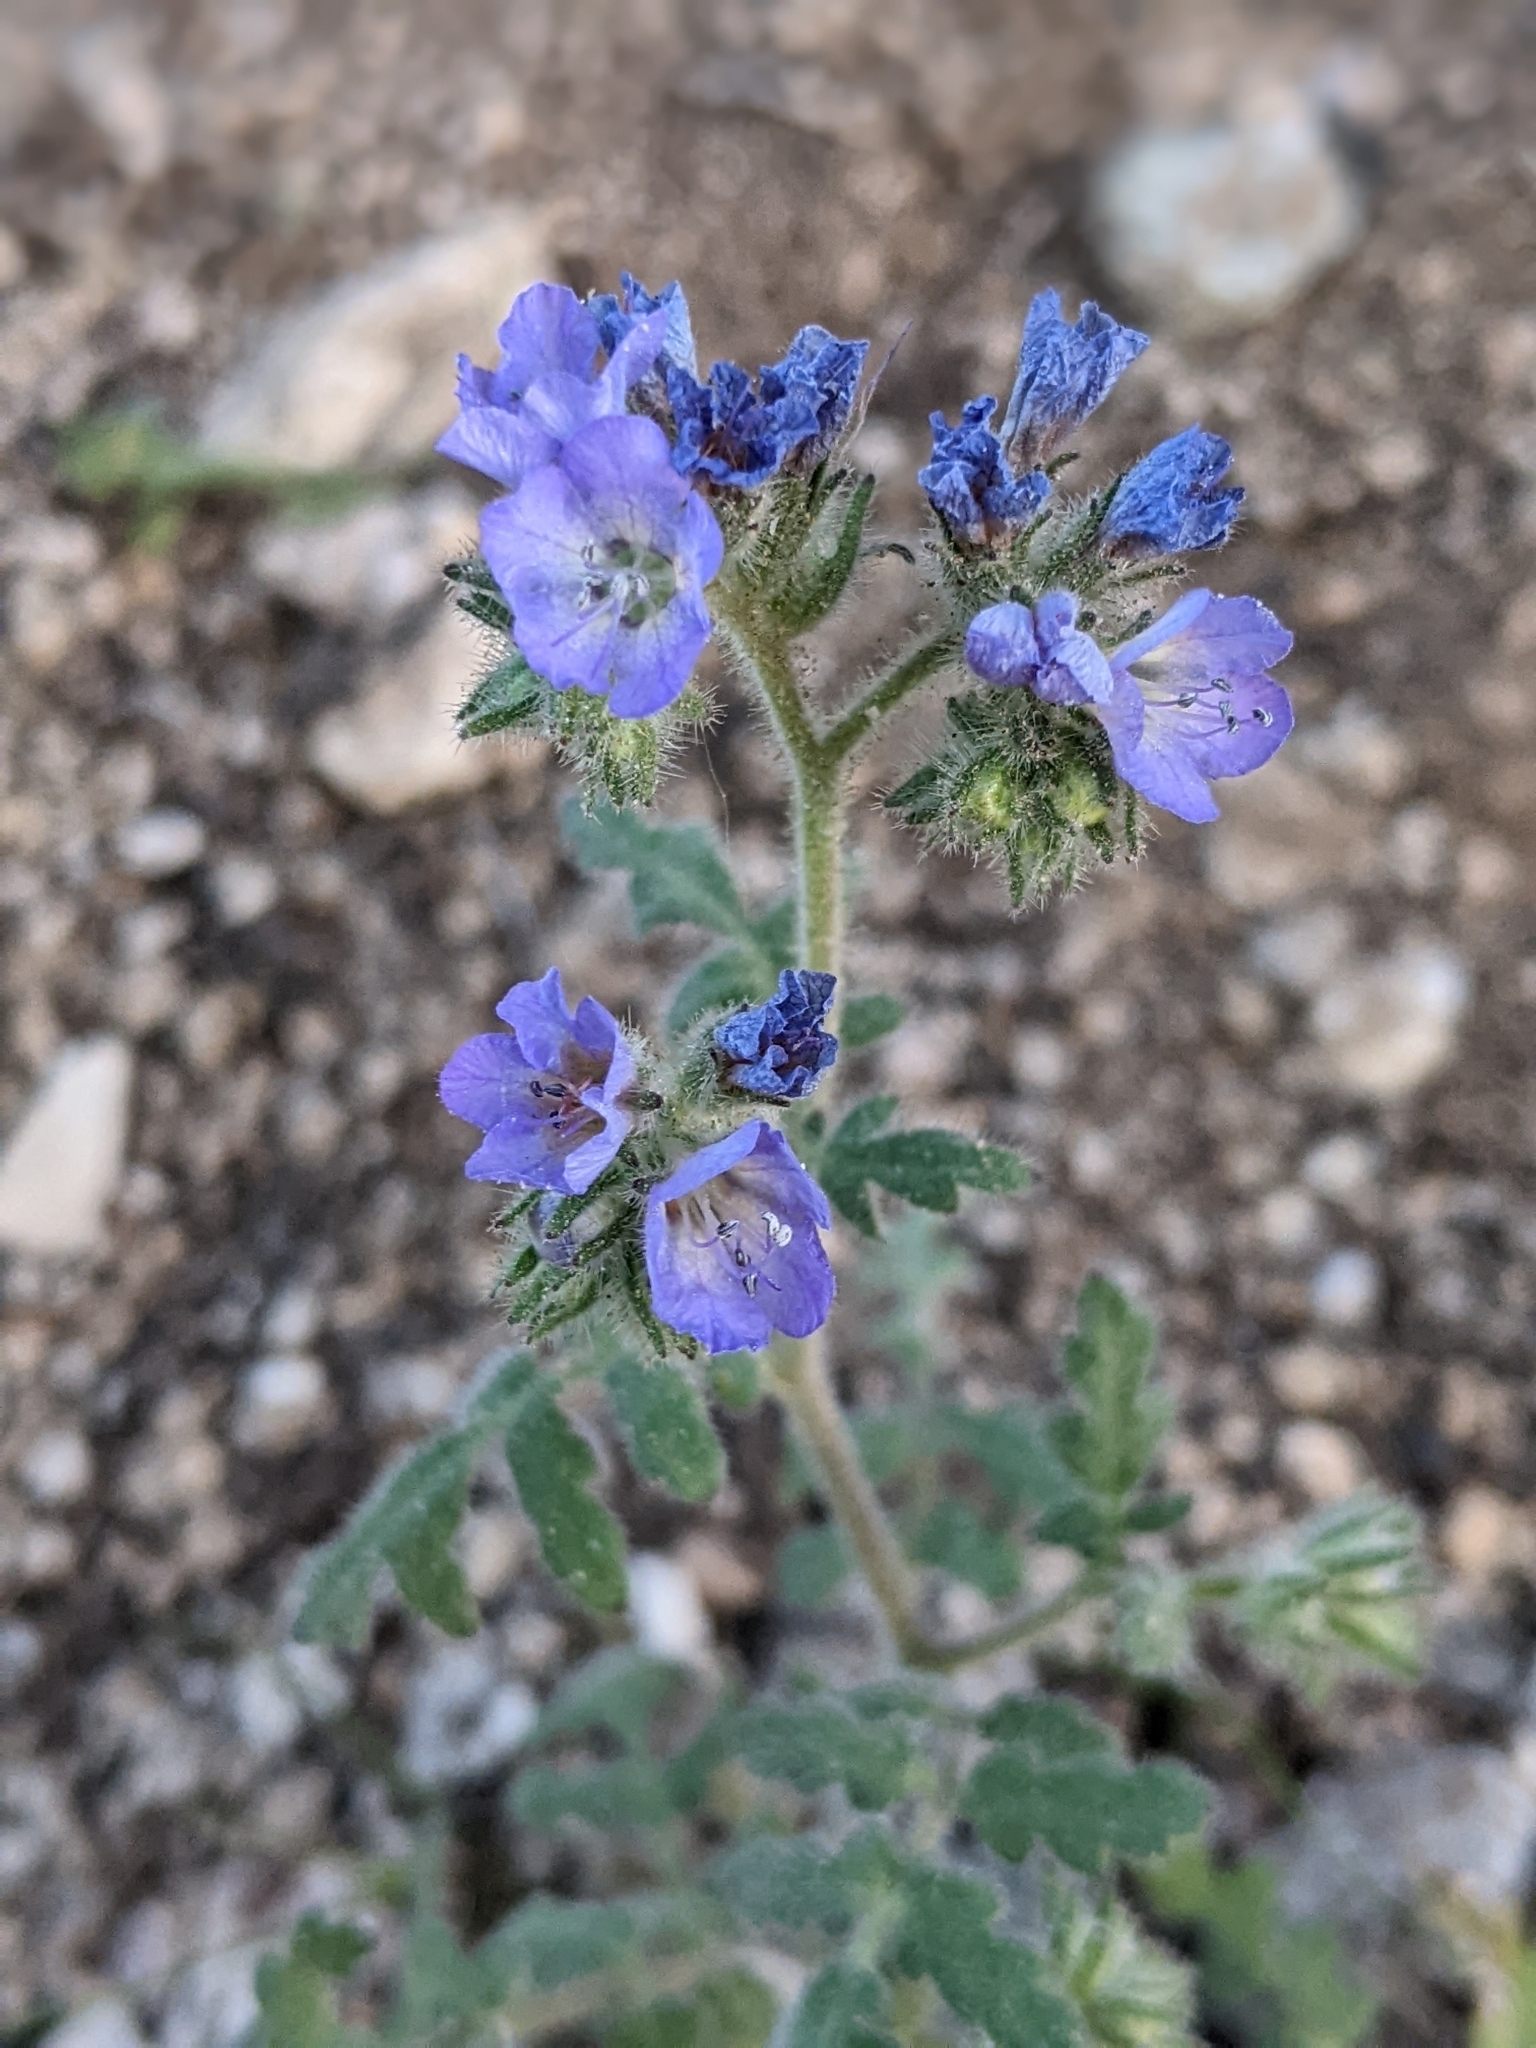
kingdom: Plantae
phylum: Tracheophyta
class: Magnoliopsida
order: Boraginales
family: Hydrophyllaceae
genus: Phacelia
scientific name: Phacelia distans
